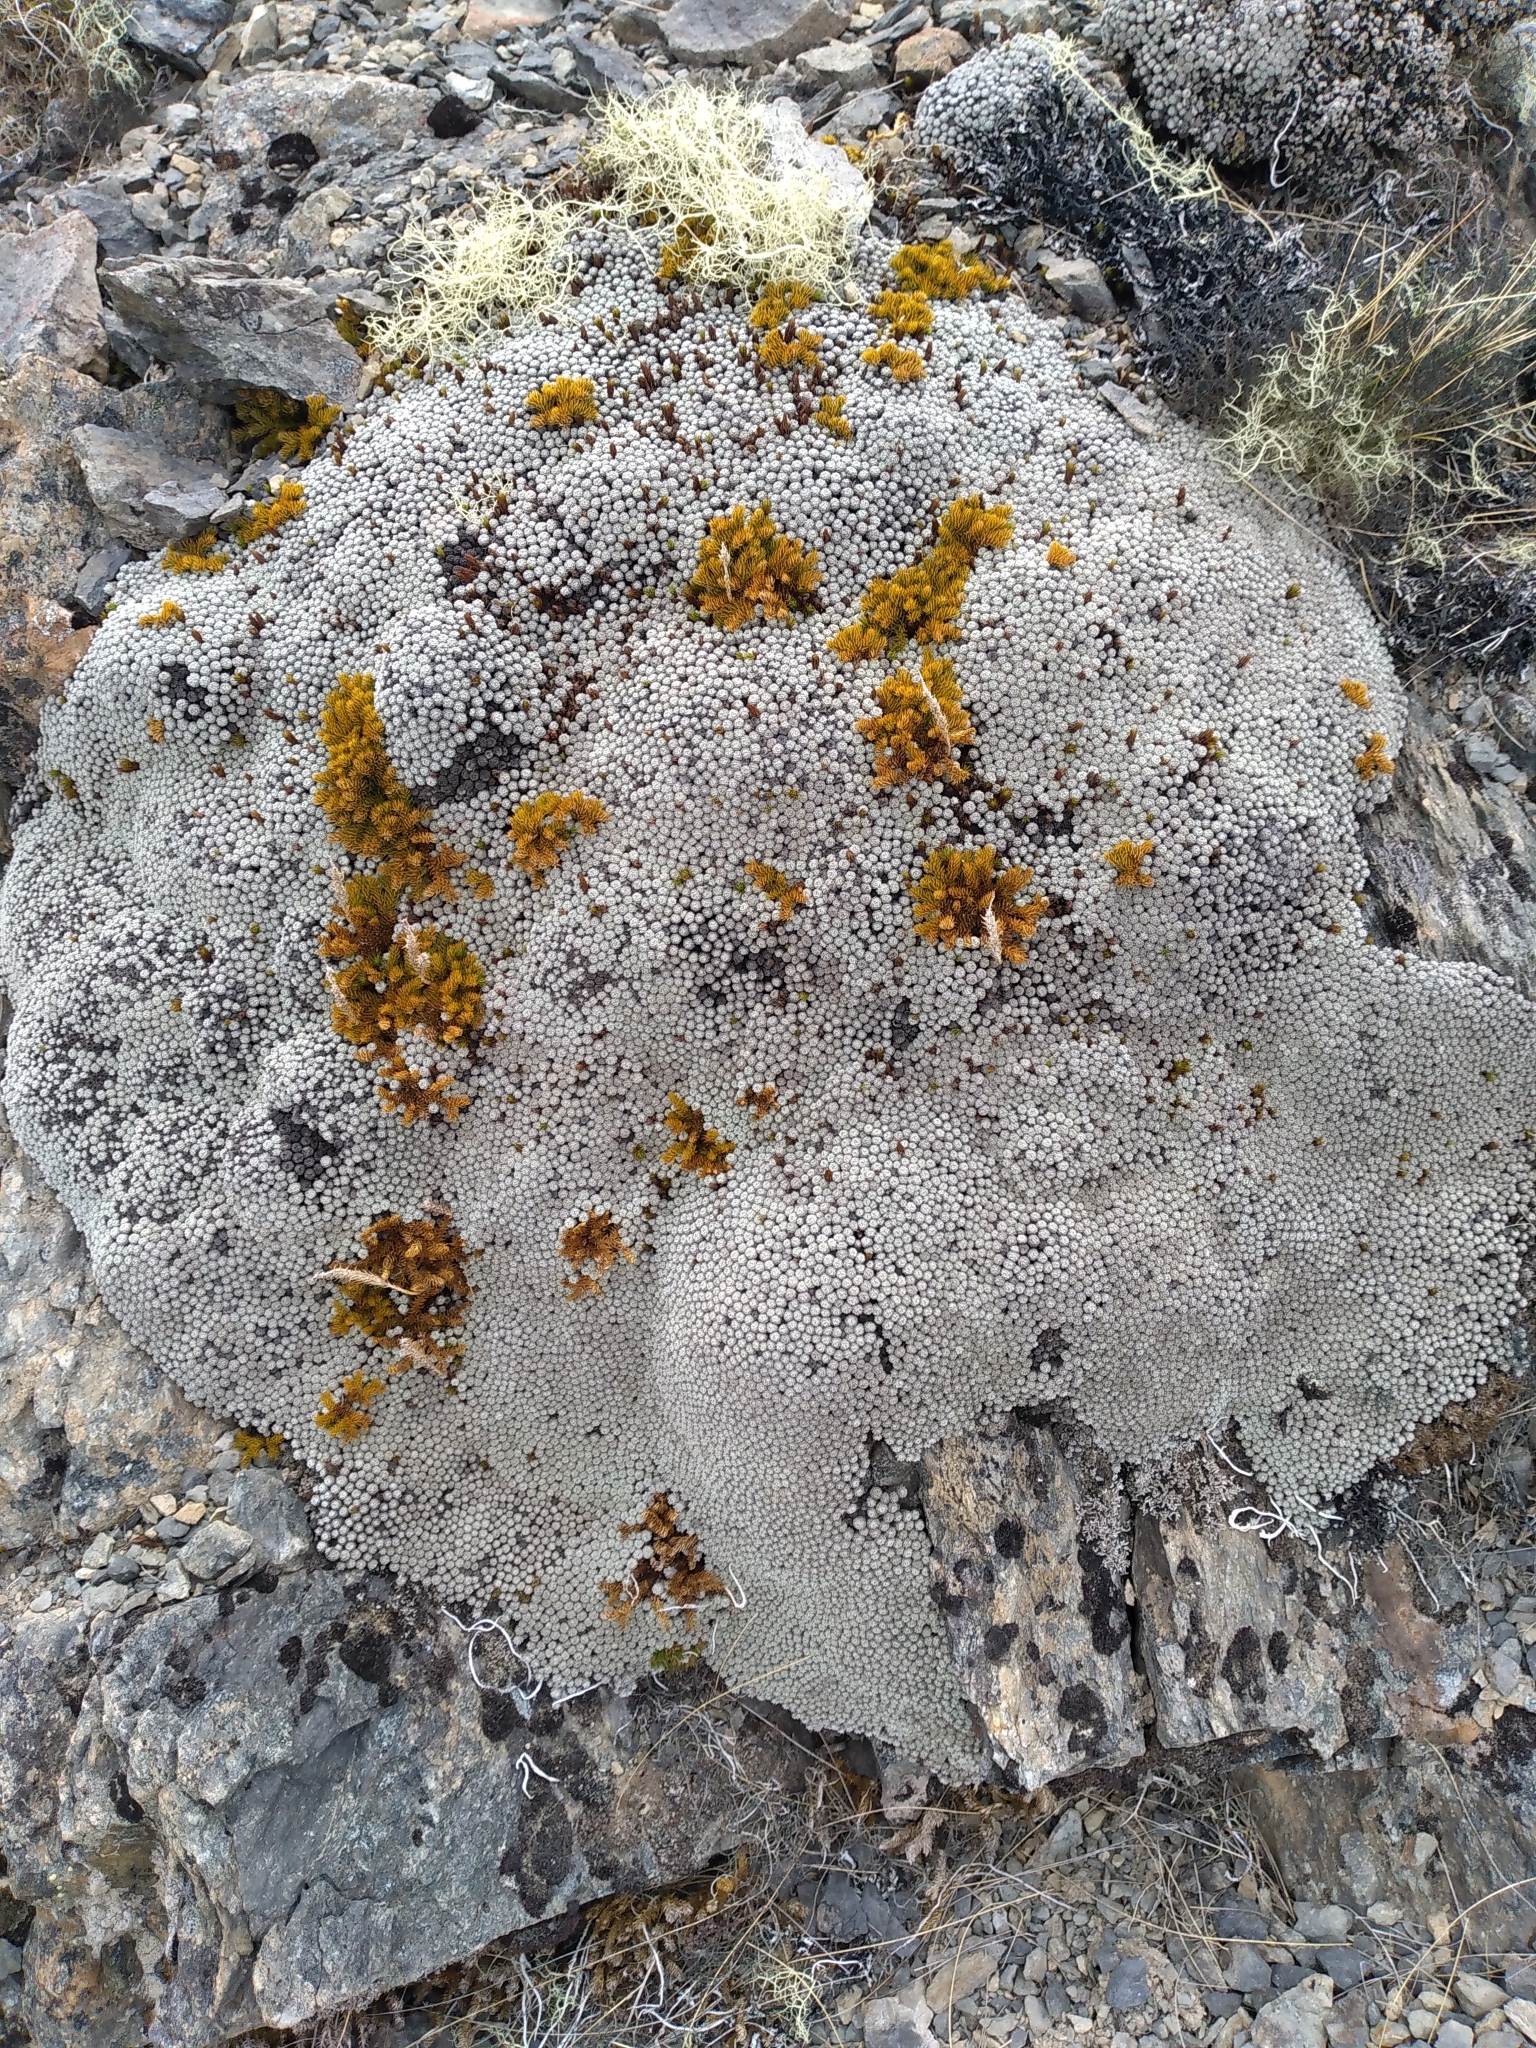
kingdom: Plantae
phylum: Tracheophyta
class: Magnoliopsida
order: Asterales
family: Asteraceae
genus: Raoulia
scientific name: Raoulia bryoides
